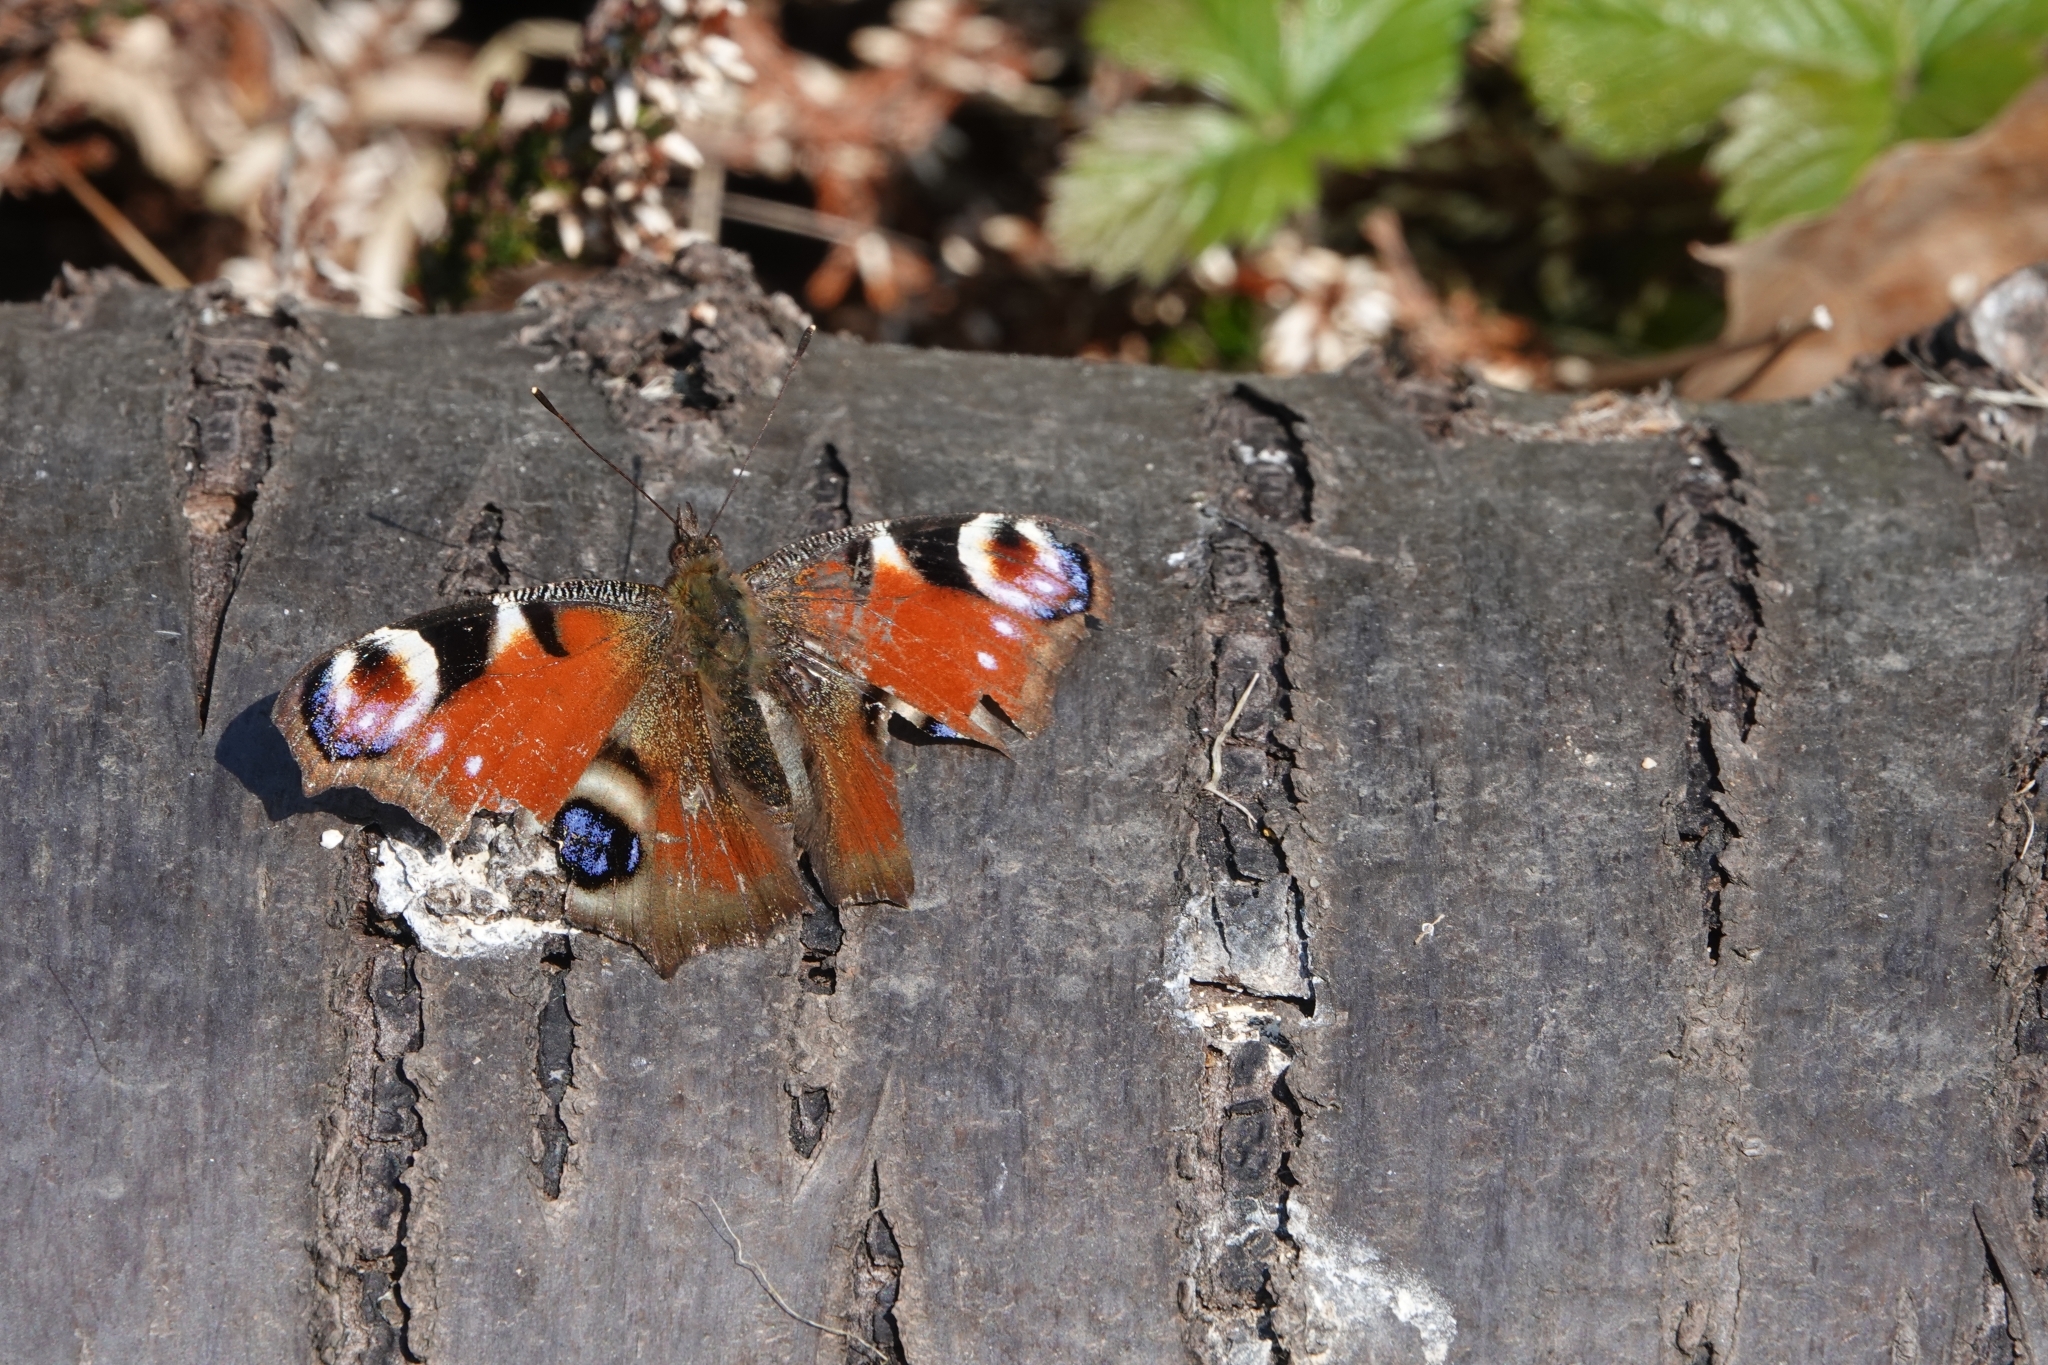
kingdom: Animalia
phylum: Arthropoda
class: Insecta
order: Lepidoptera
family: Nymphalidae
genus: Aglais
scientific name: Aglais io
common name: Peacock
